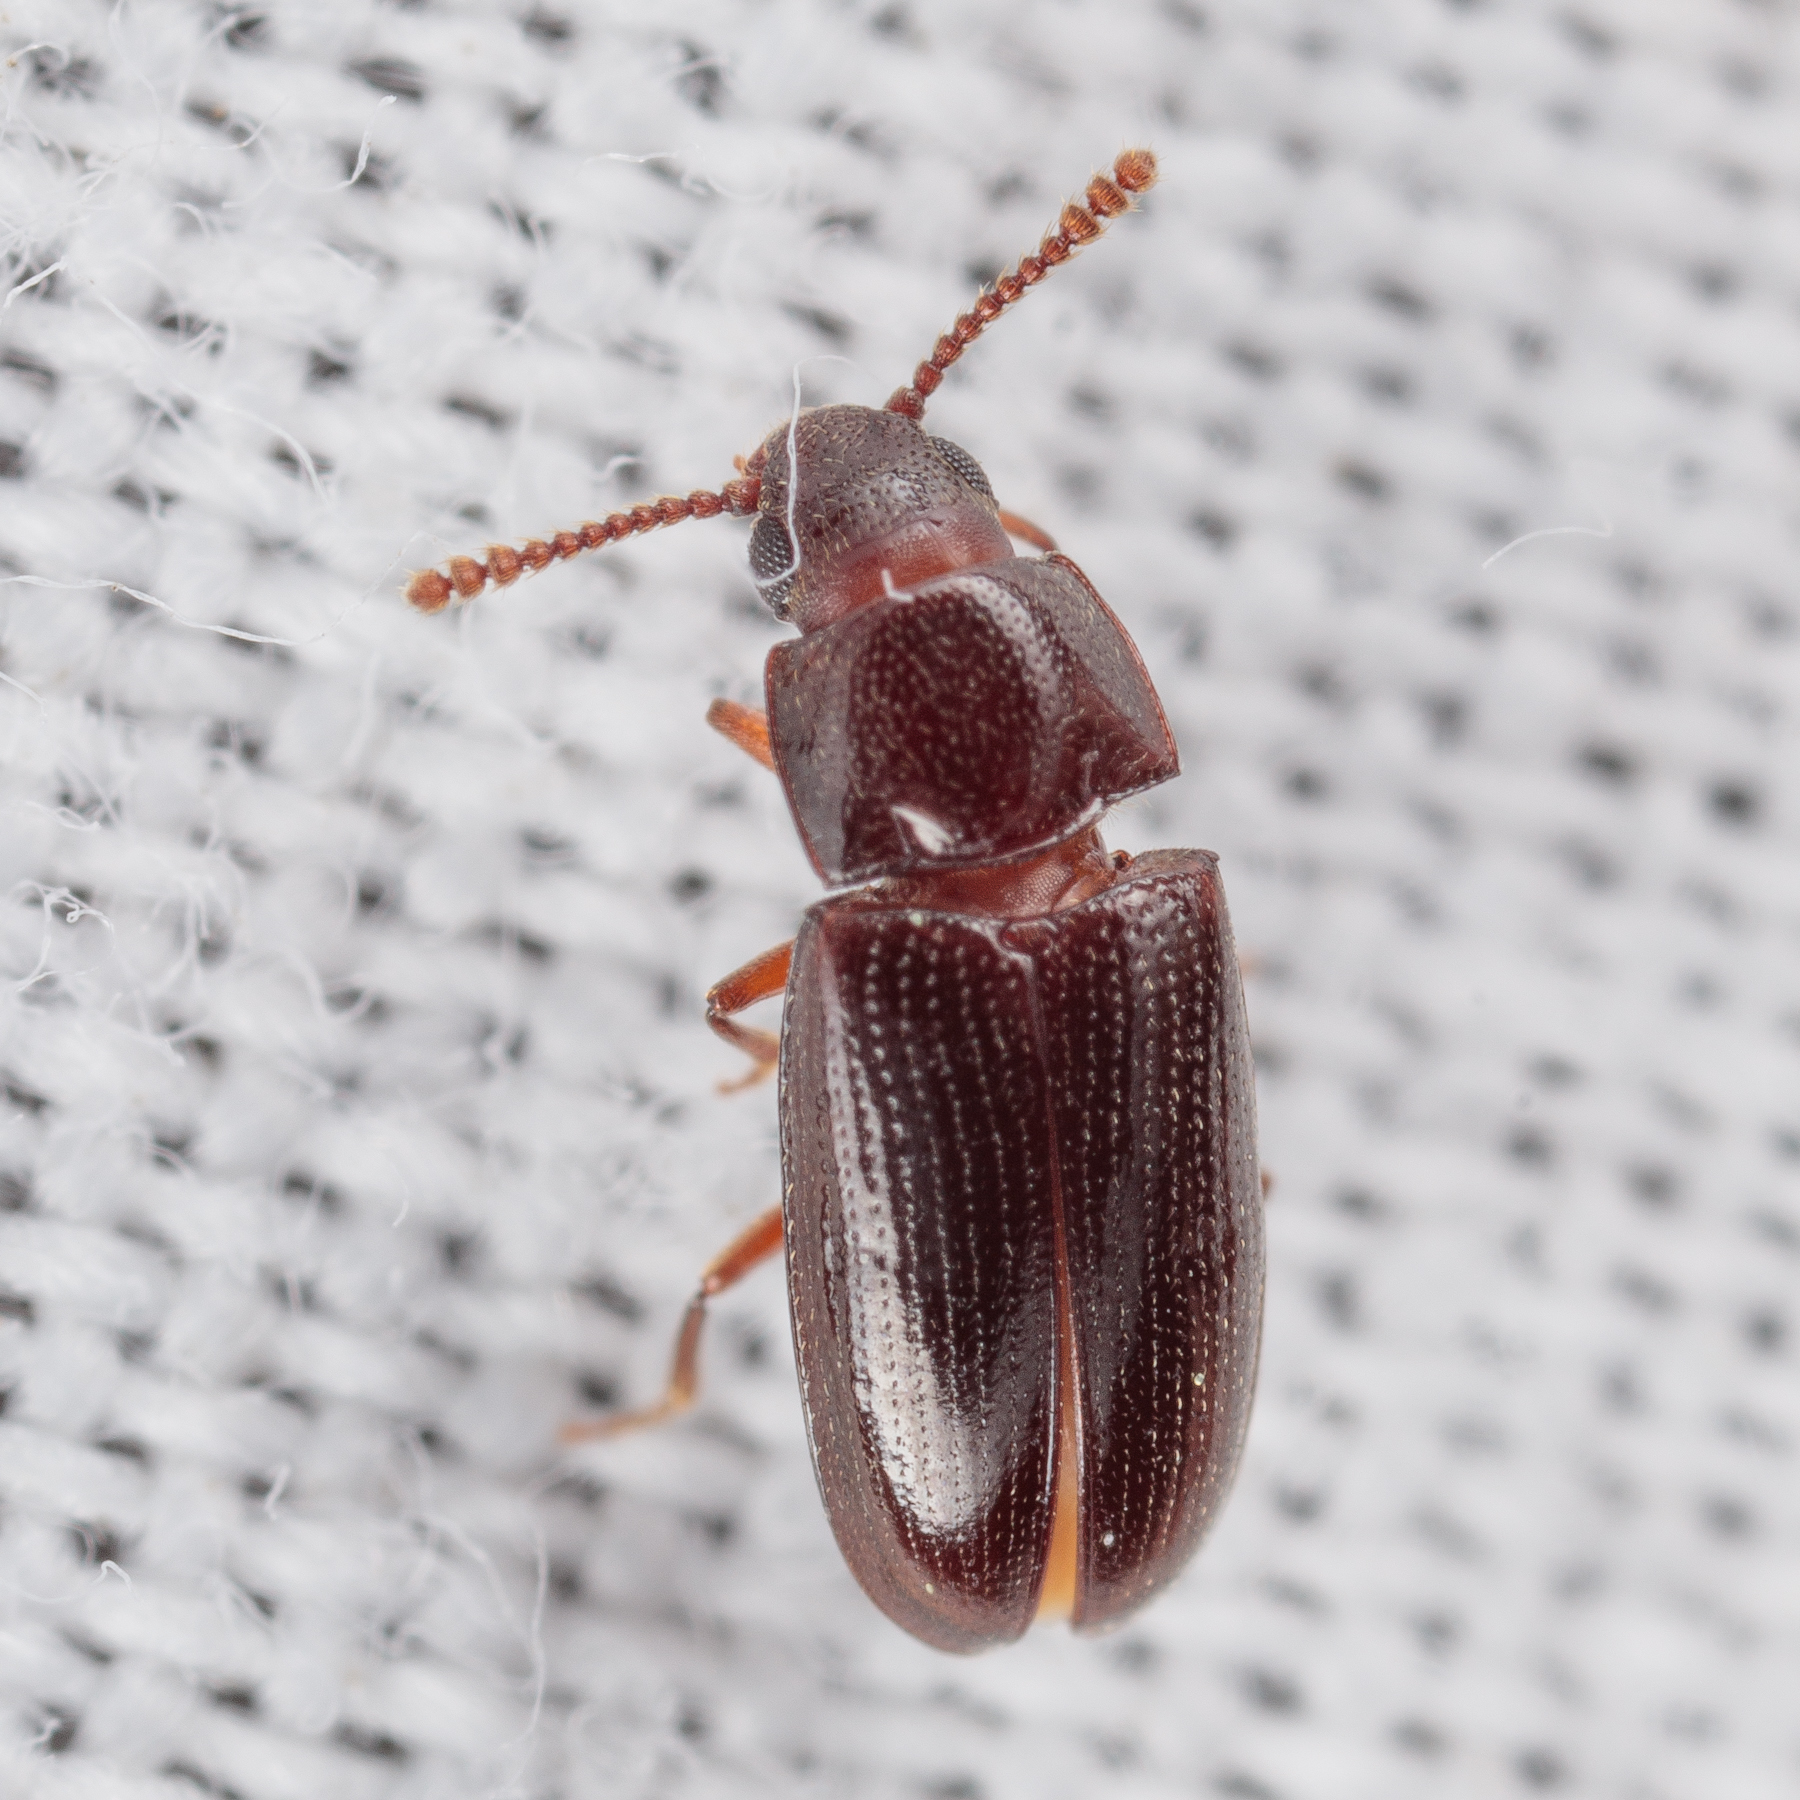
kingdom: Animalia
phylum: Arthropoda
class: Insecta
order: Coleoptera
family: Erotylidae
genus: Pharaxonotha
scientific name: Pharaxonotha kirschii
